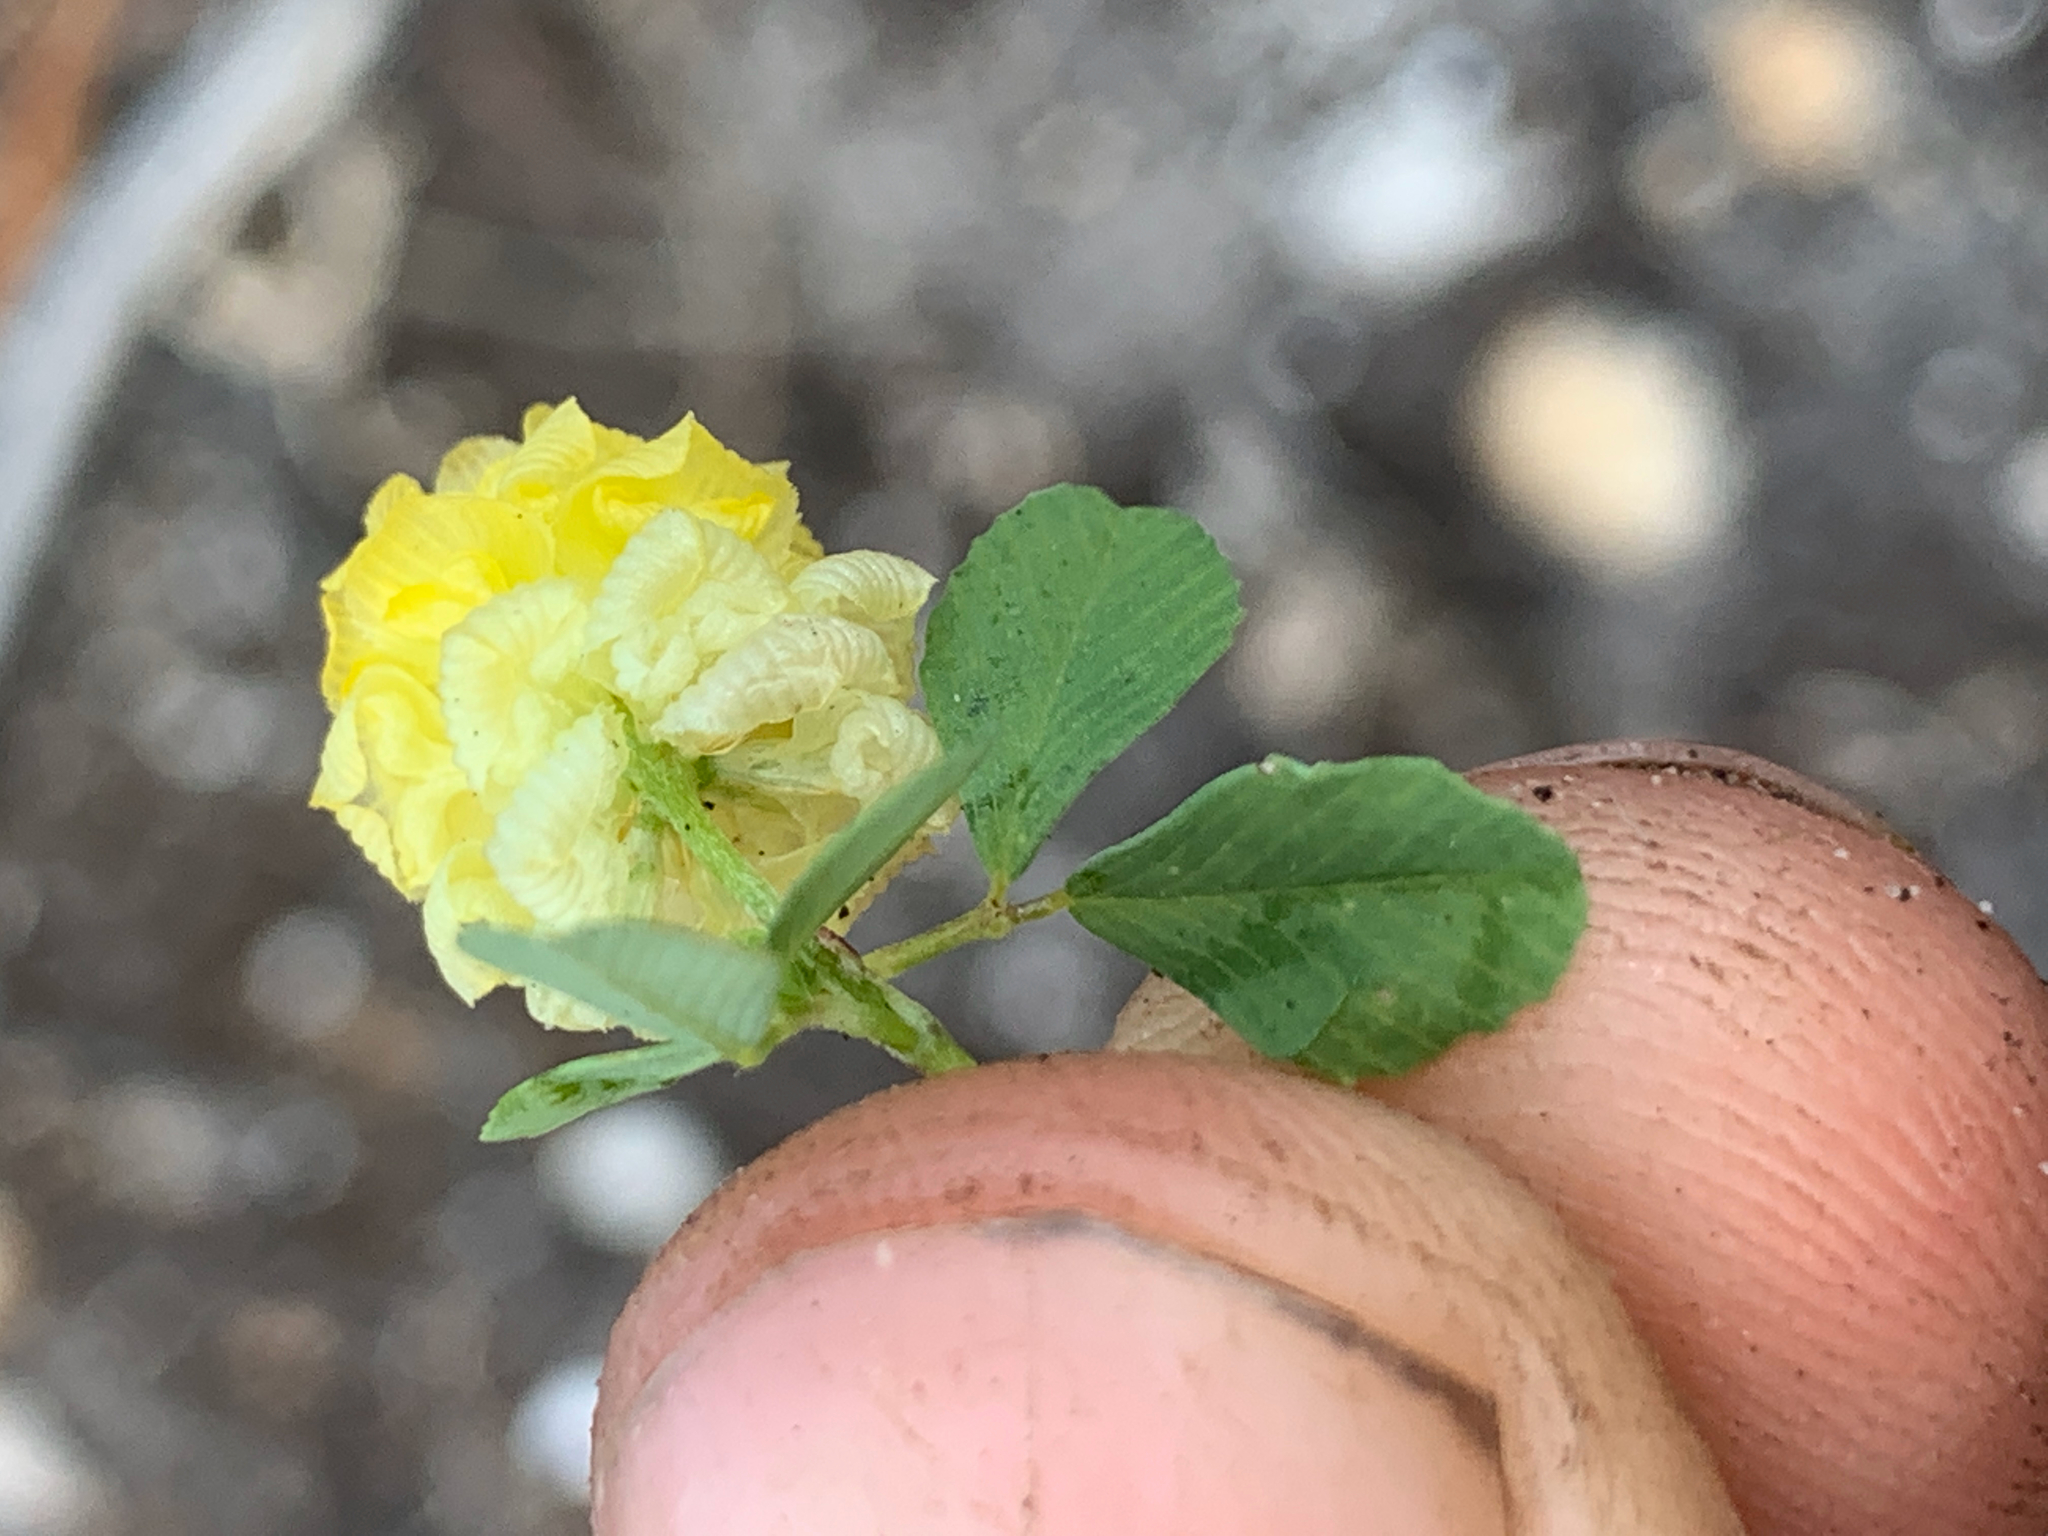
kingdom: Plantae
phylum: Tracheophyta
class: Magnoliopsida
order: Fabales
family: Fabaceae
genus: Trifolium
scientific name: Trifolium campestre
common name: Field clover
